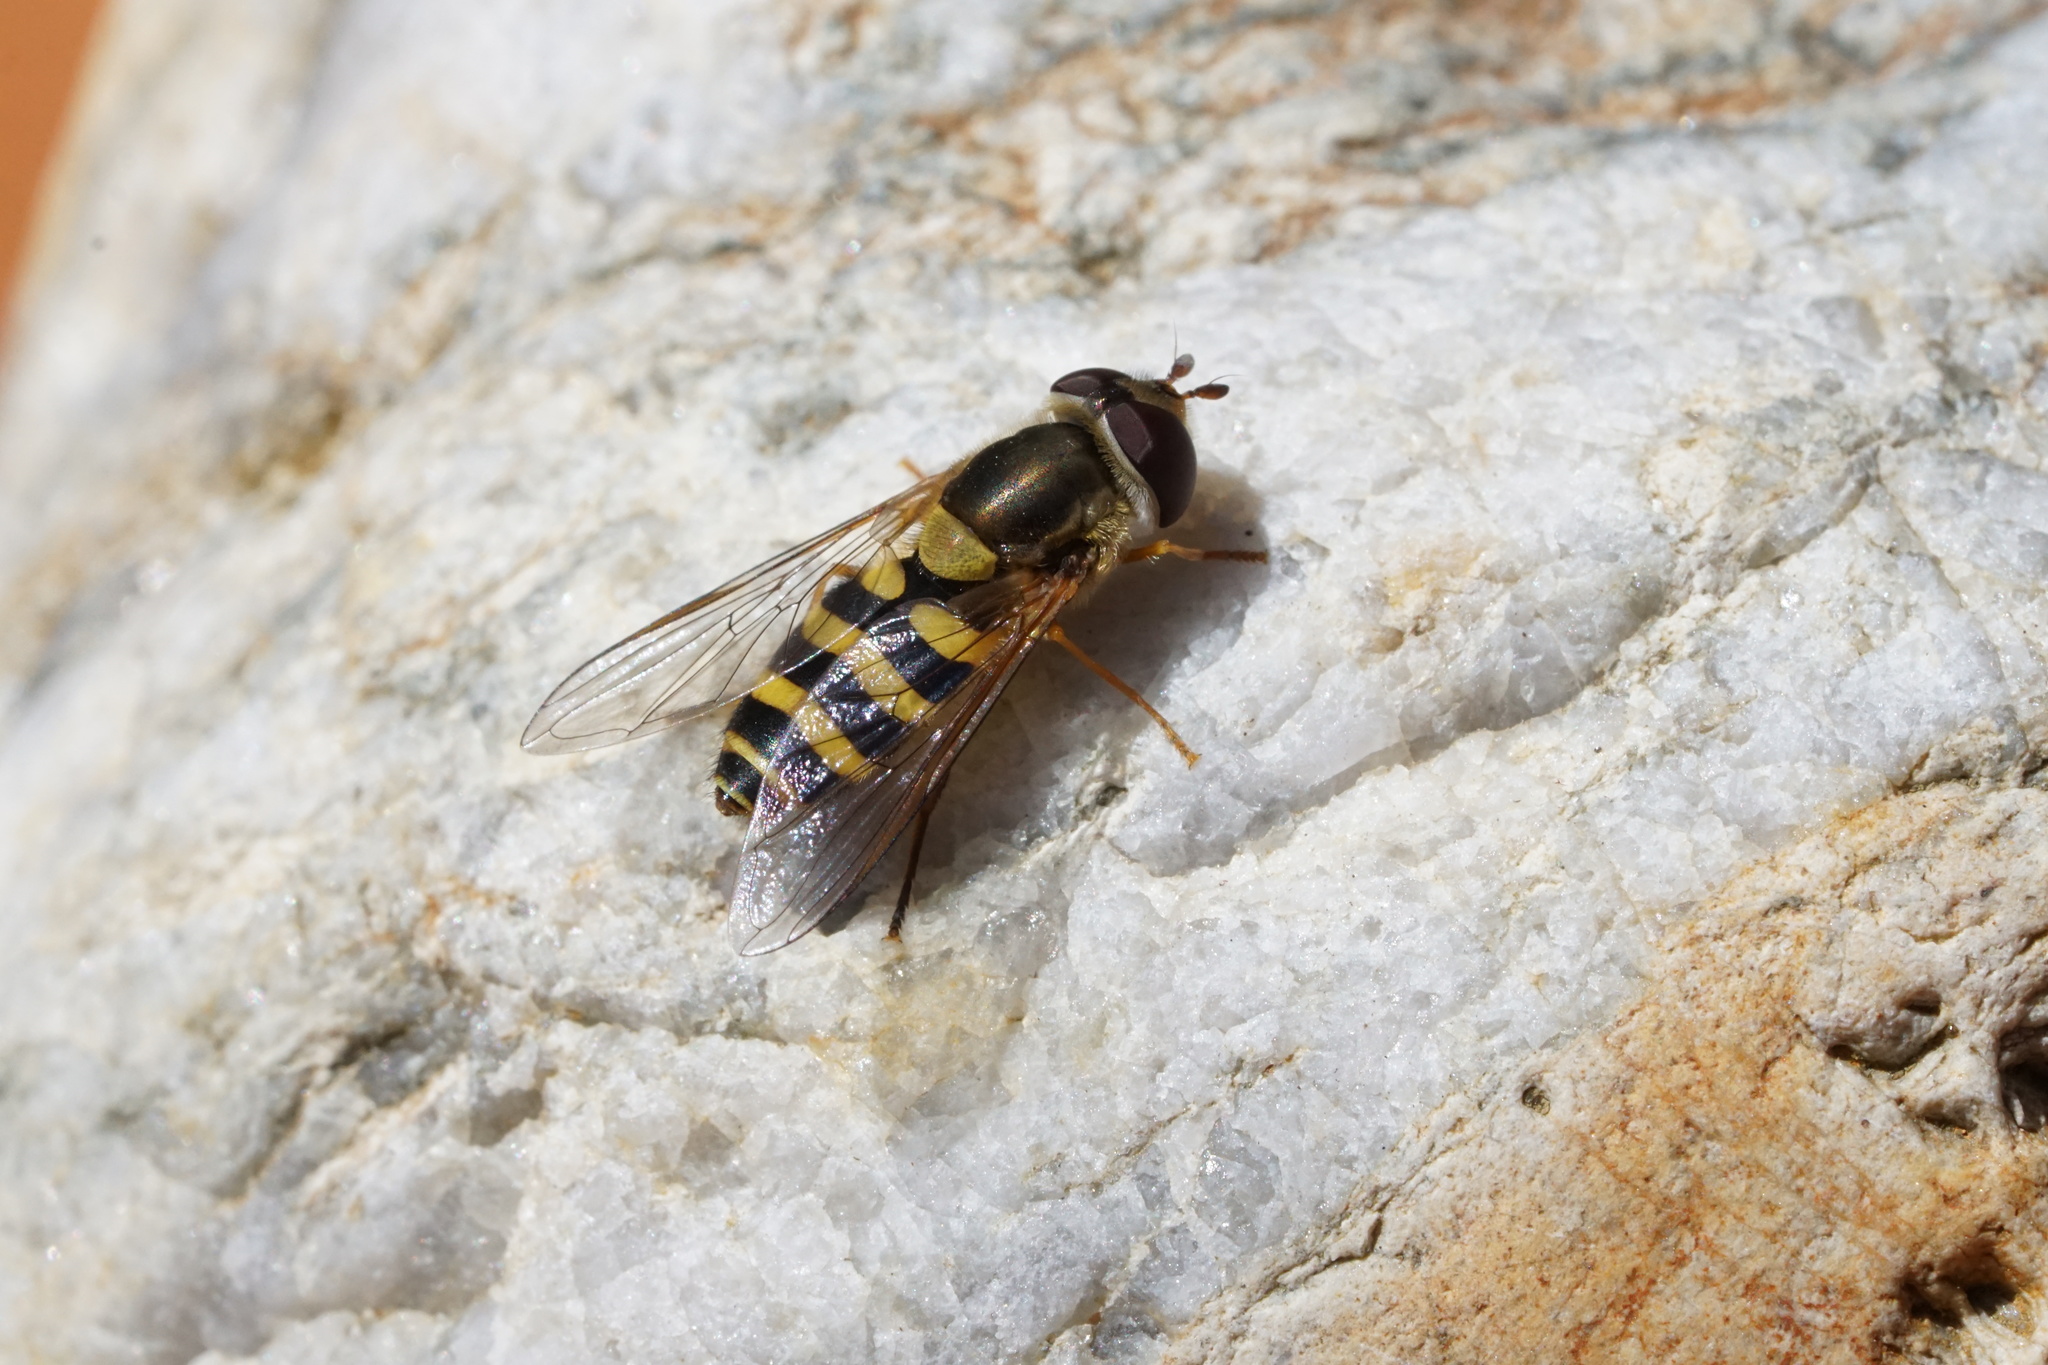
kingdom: Animalia
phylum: Arthropoda
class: Insecta
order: Diptera
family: Syrphidae
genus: Syrphus
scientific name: Syrphus
